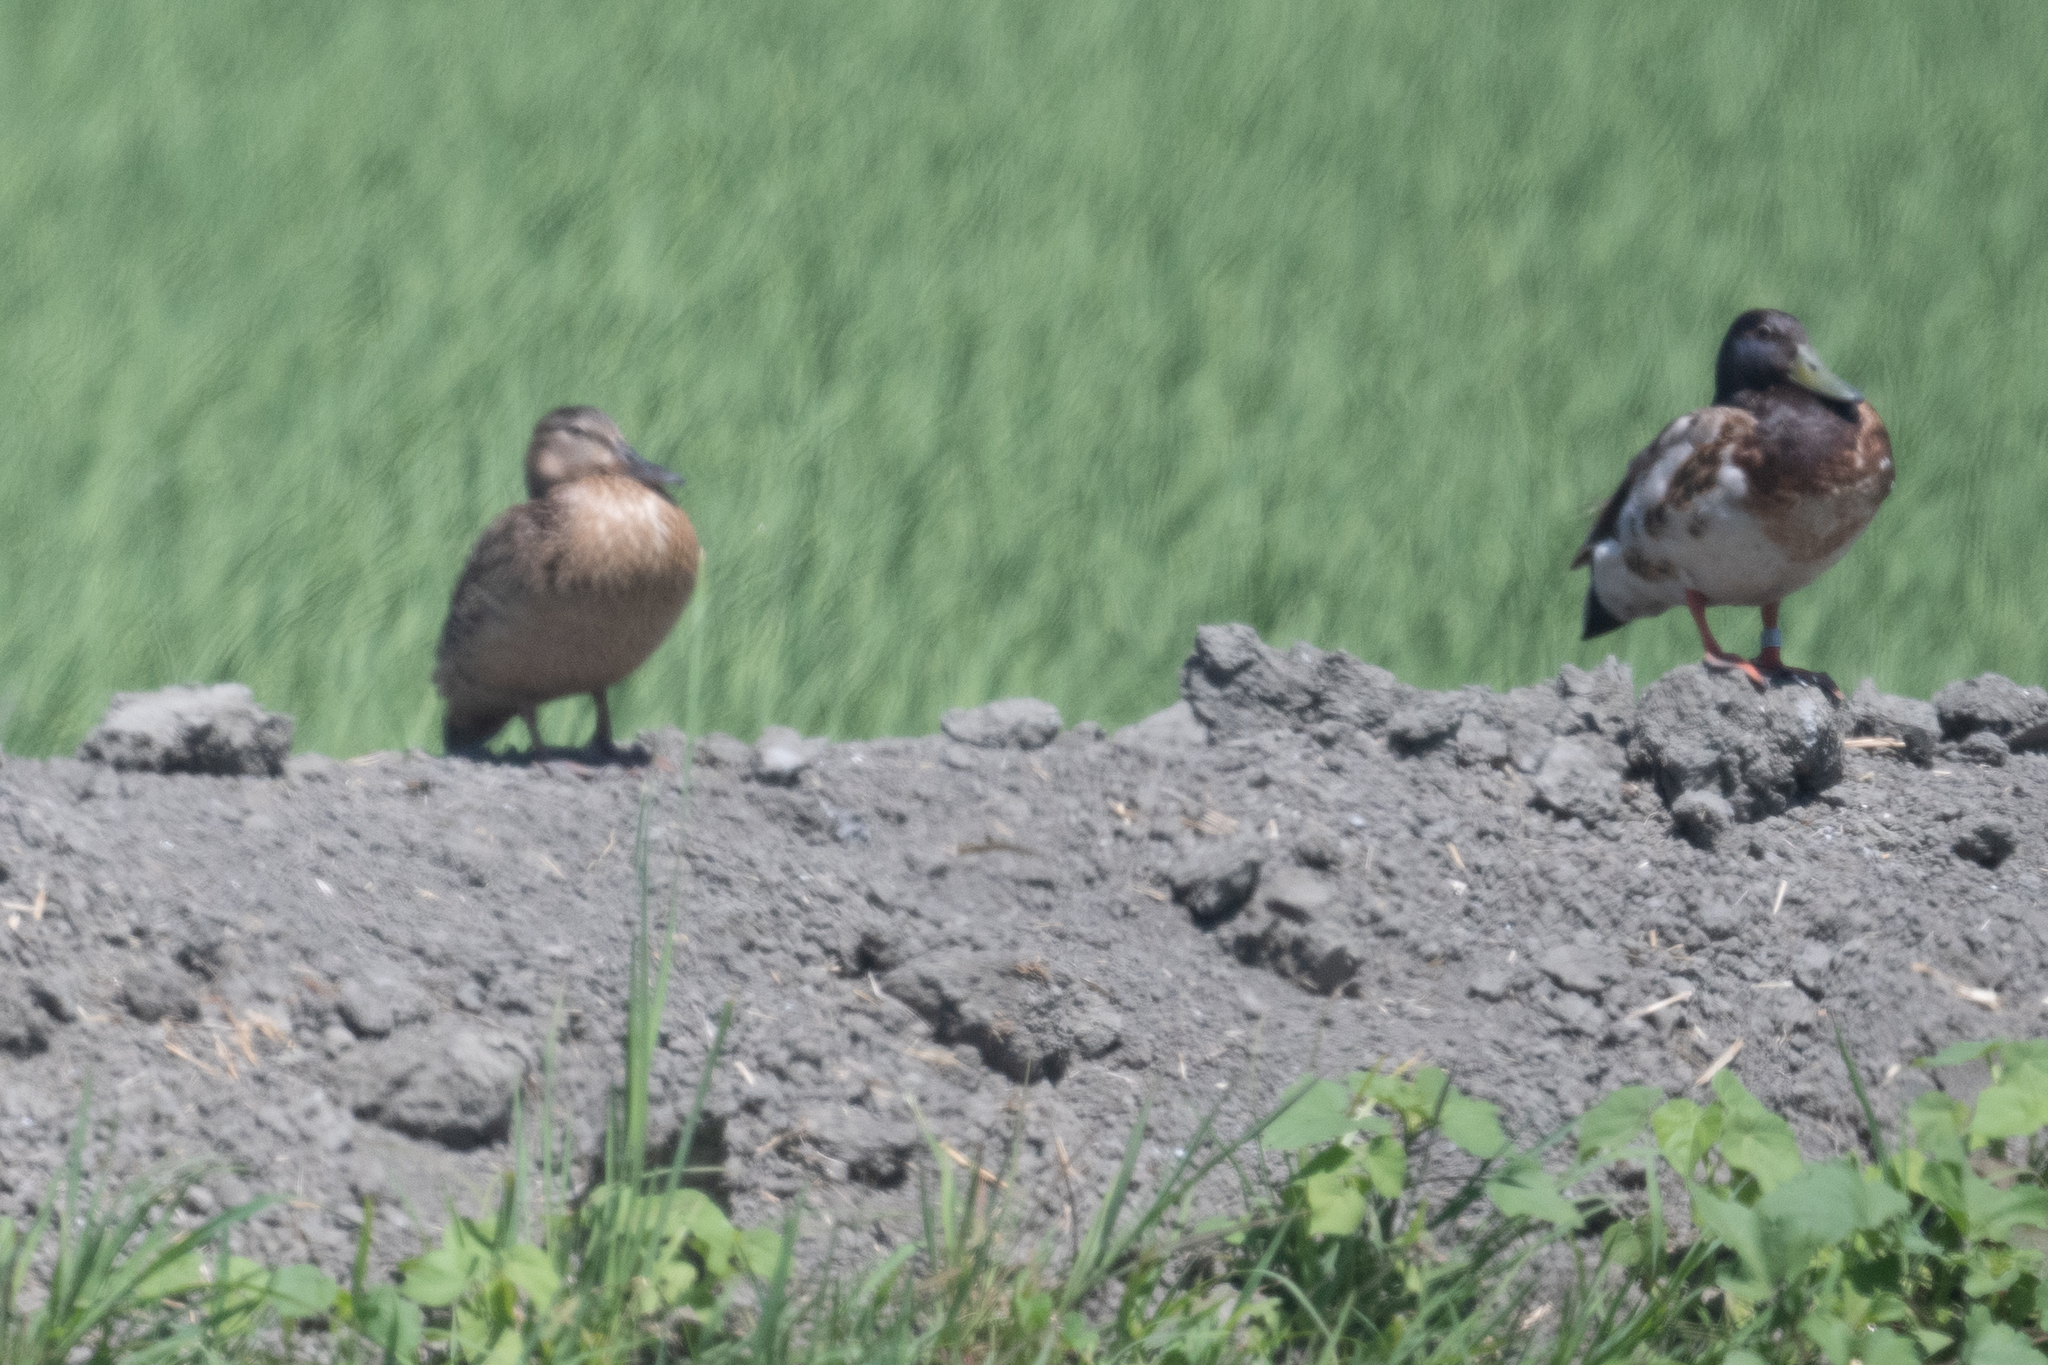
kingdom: Animalia
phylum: Chordata
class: Aves
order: Anseriformes
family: Anatidae
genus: Anas
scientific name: Anas platyrhynchos
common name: Mallard
